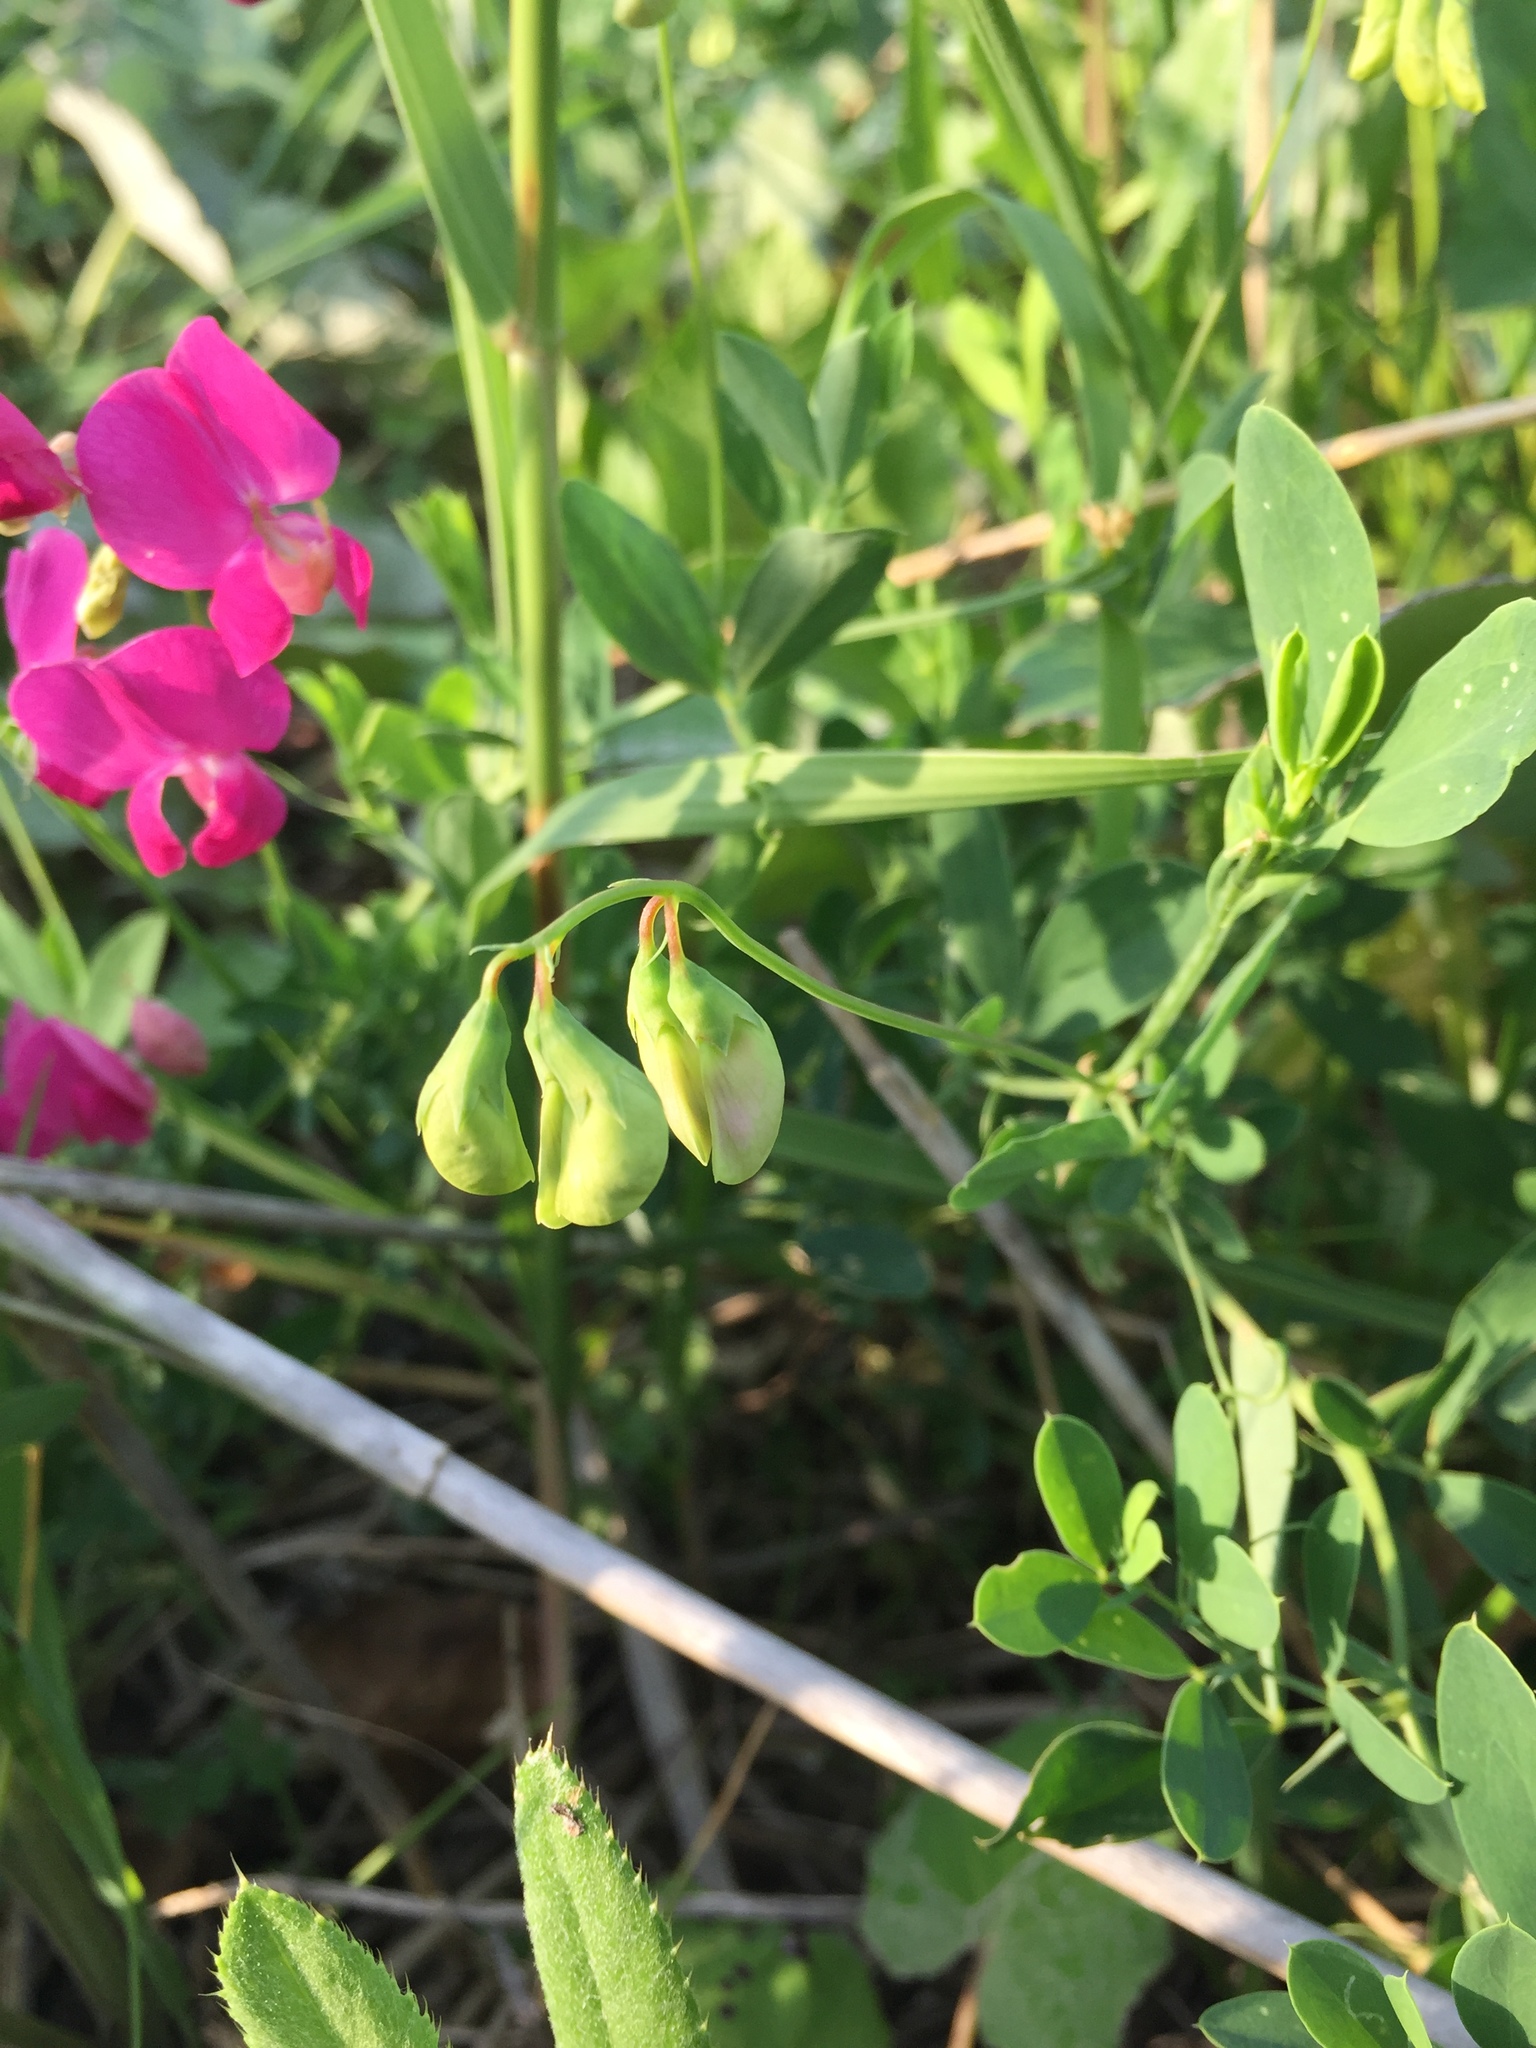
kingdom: Plantae
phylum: Tracheophyta
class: Magnoliopsida
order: Fabales
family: Fabaceae
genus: Lathyrus
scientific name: Lathyrus tuberosus
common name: Tuberous pea
